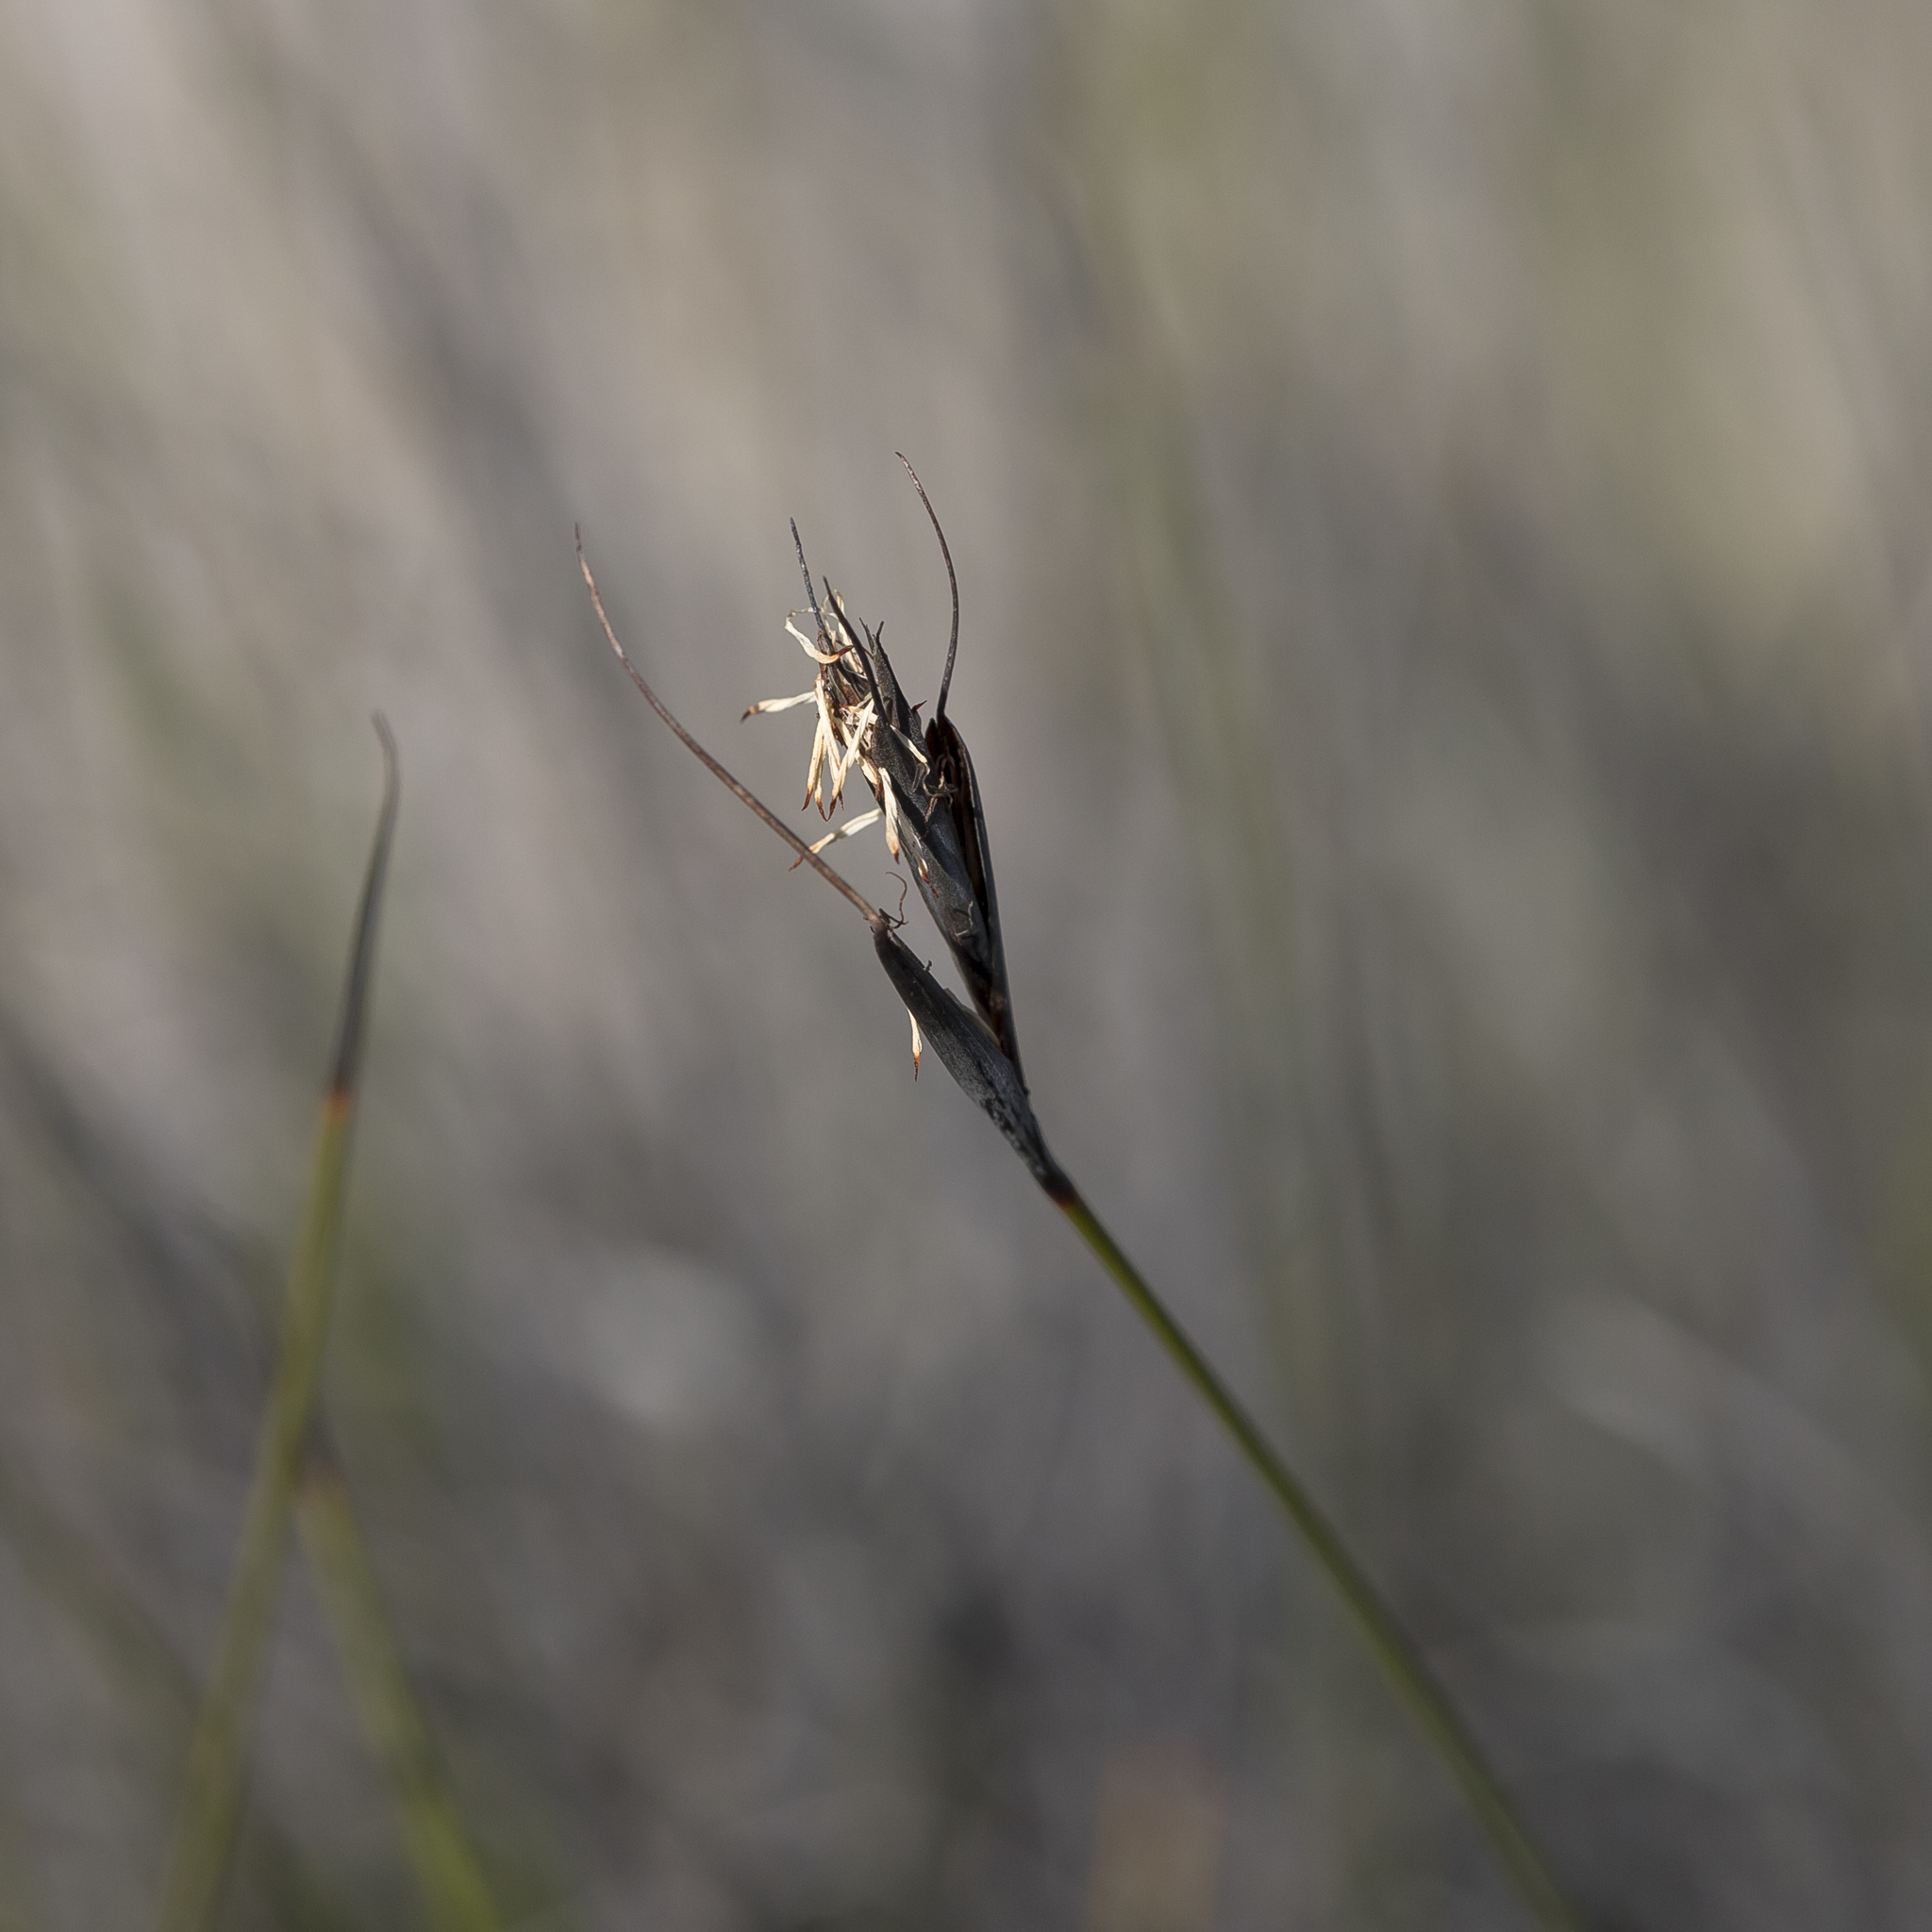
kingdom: Plantae
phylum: Tracheophyta
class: Liliopsida
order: Poales
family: Cyperaceae
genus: Lepidosperma
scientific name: Lepidosperma carphoides
